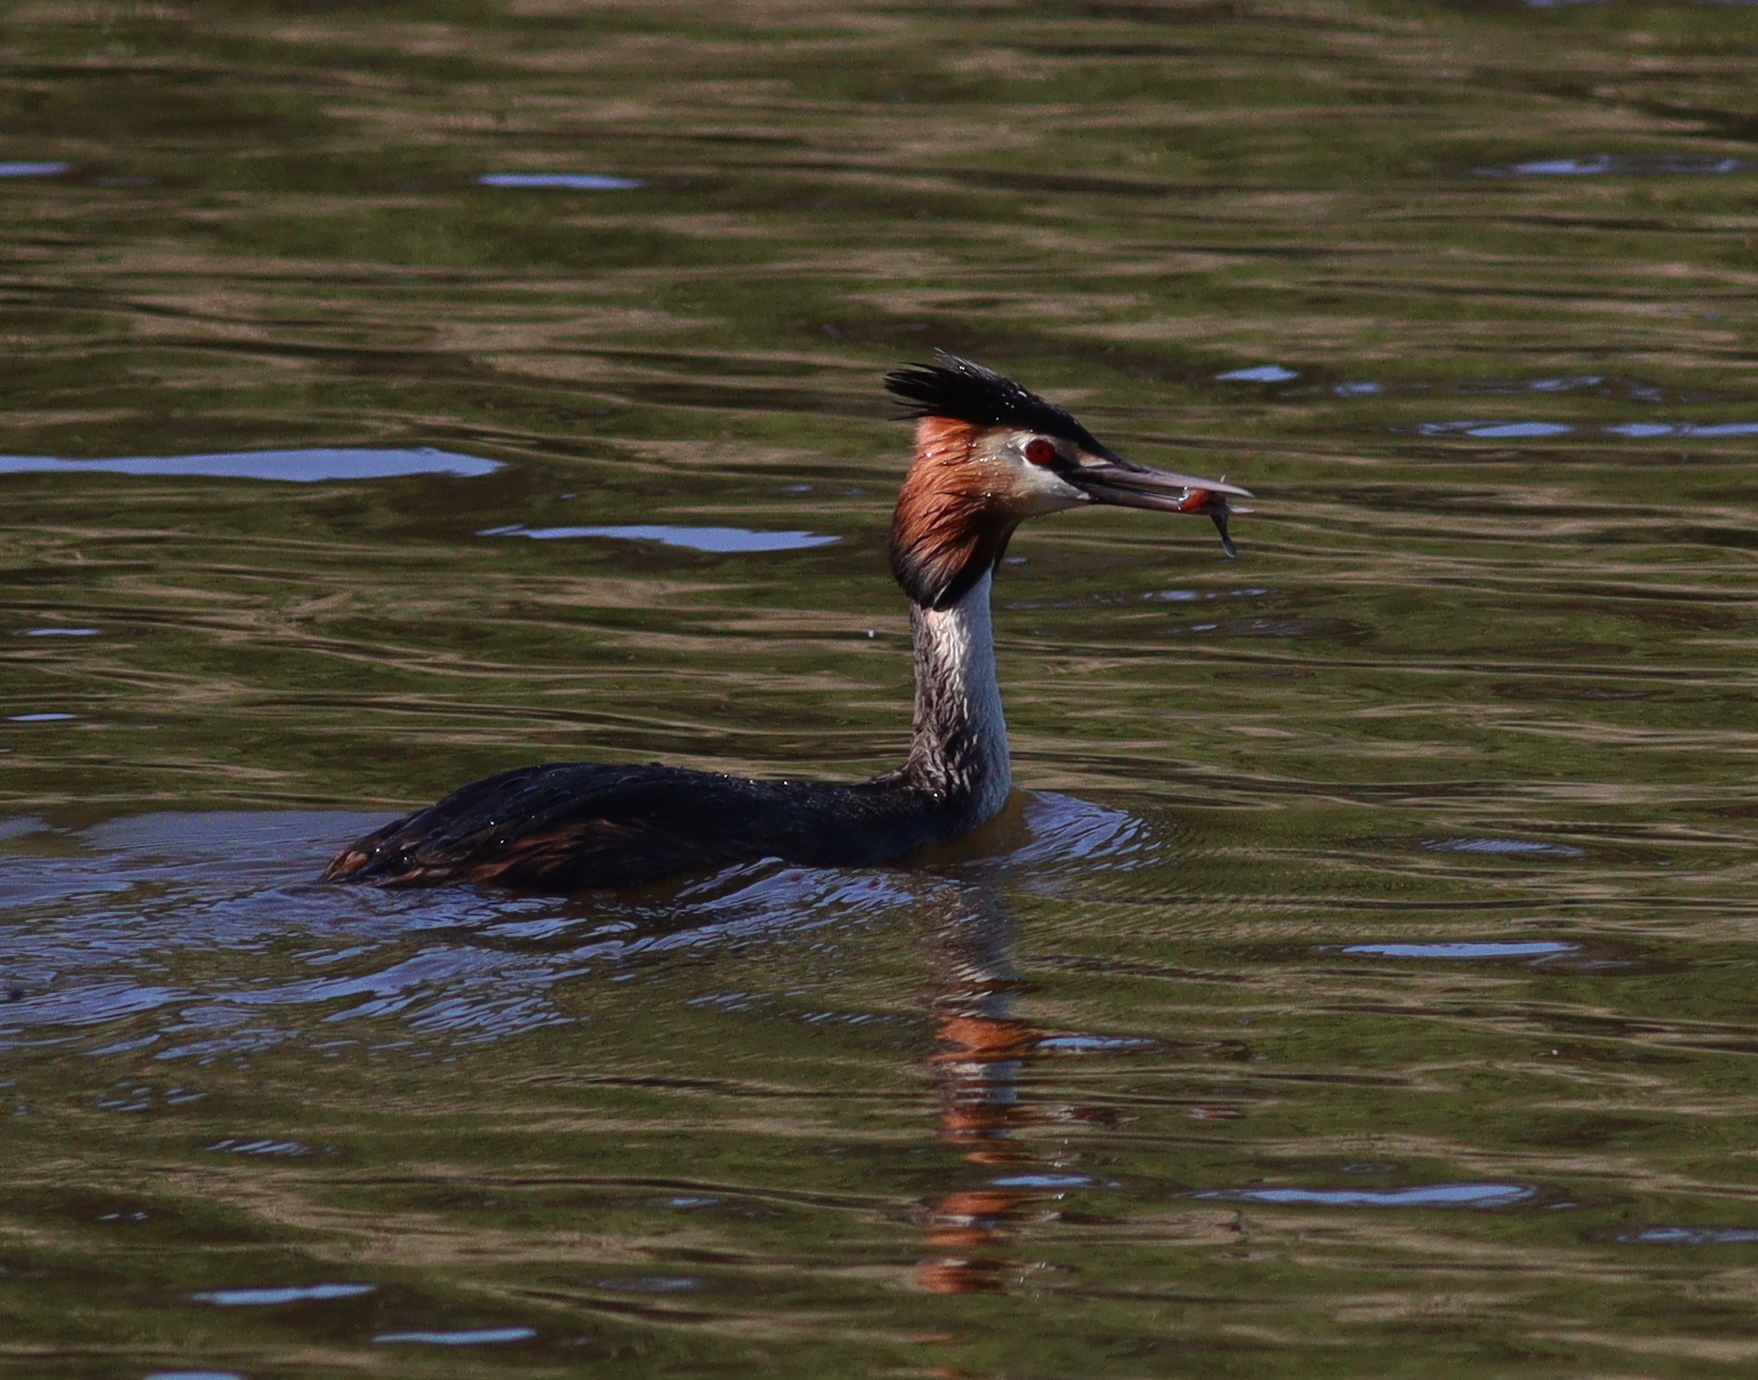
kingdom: Animalia
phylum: Chordata
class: Aves
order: Podicipediformes
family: Podicipedidae
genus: Podiceps
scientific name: Podiceps cristatus
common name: Great crested grebe
